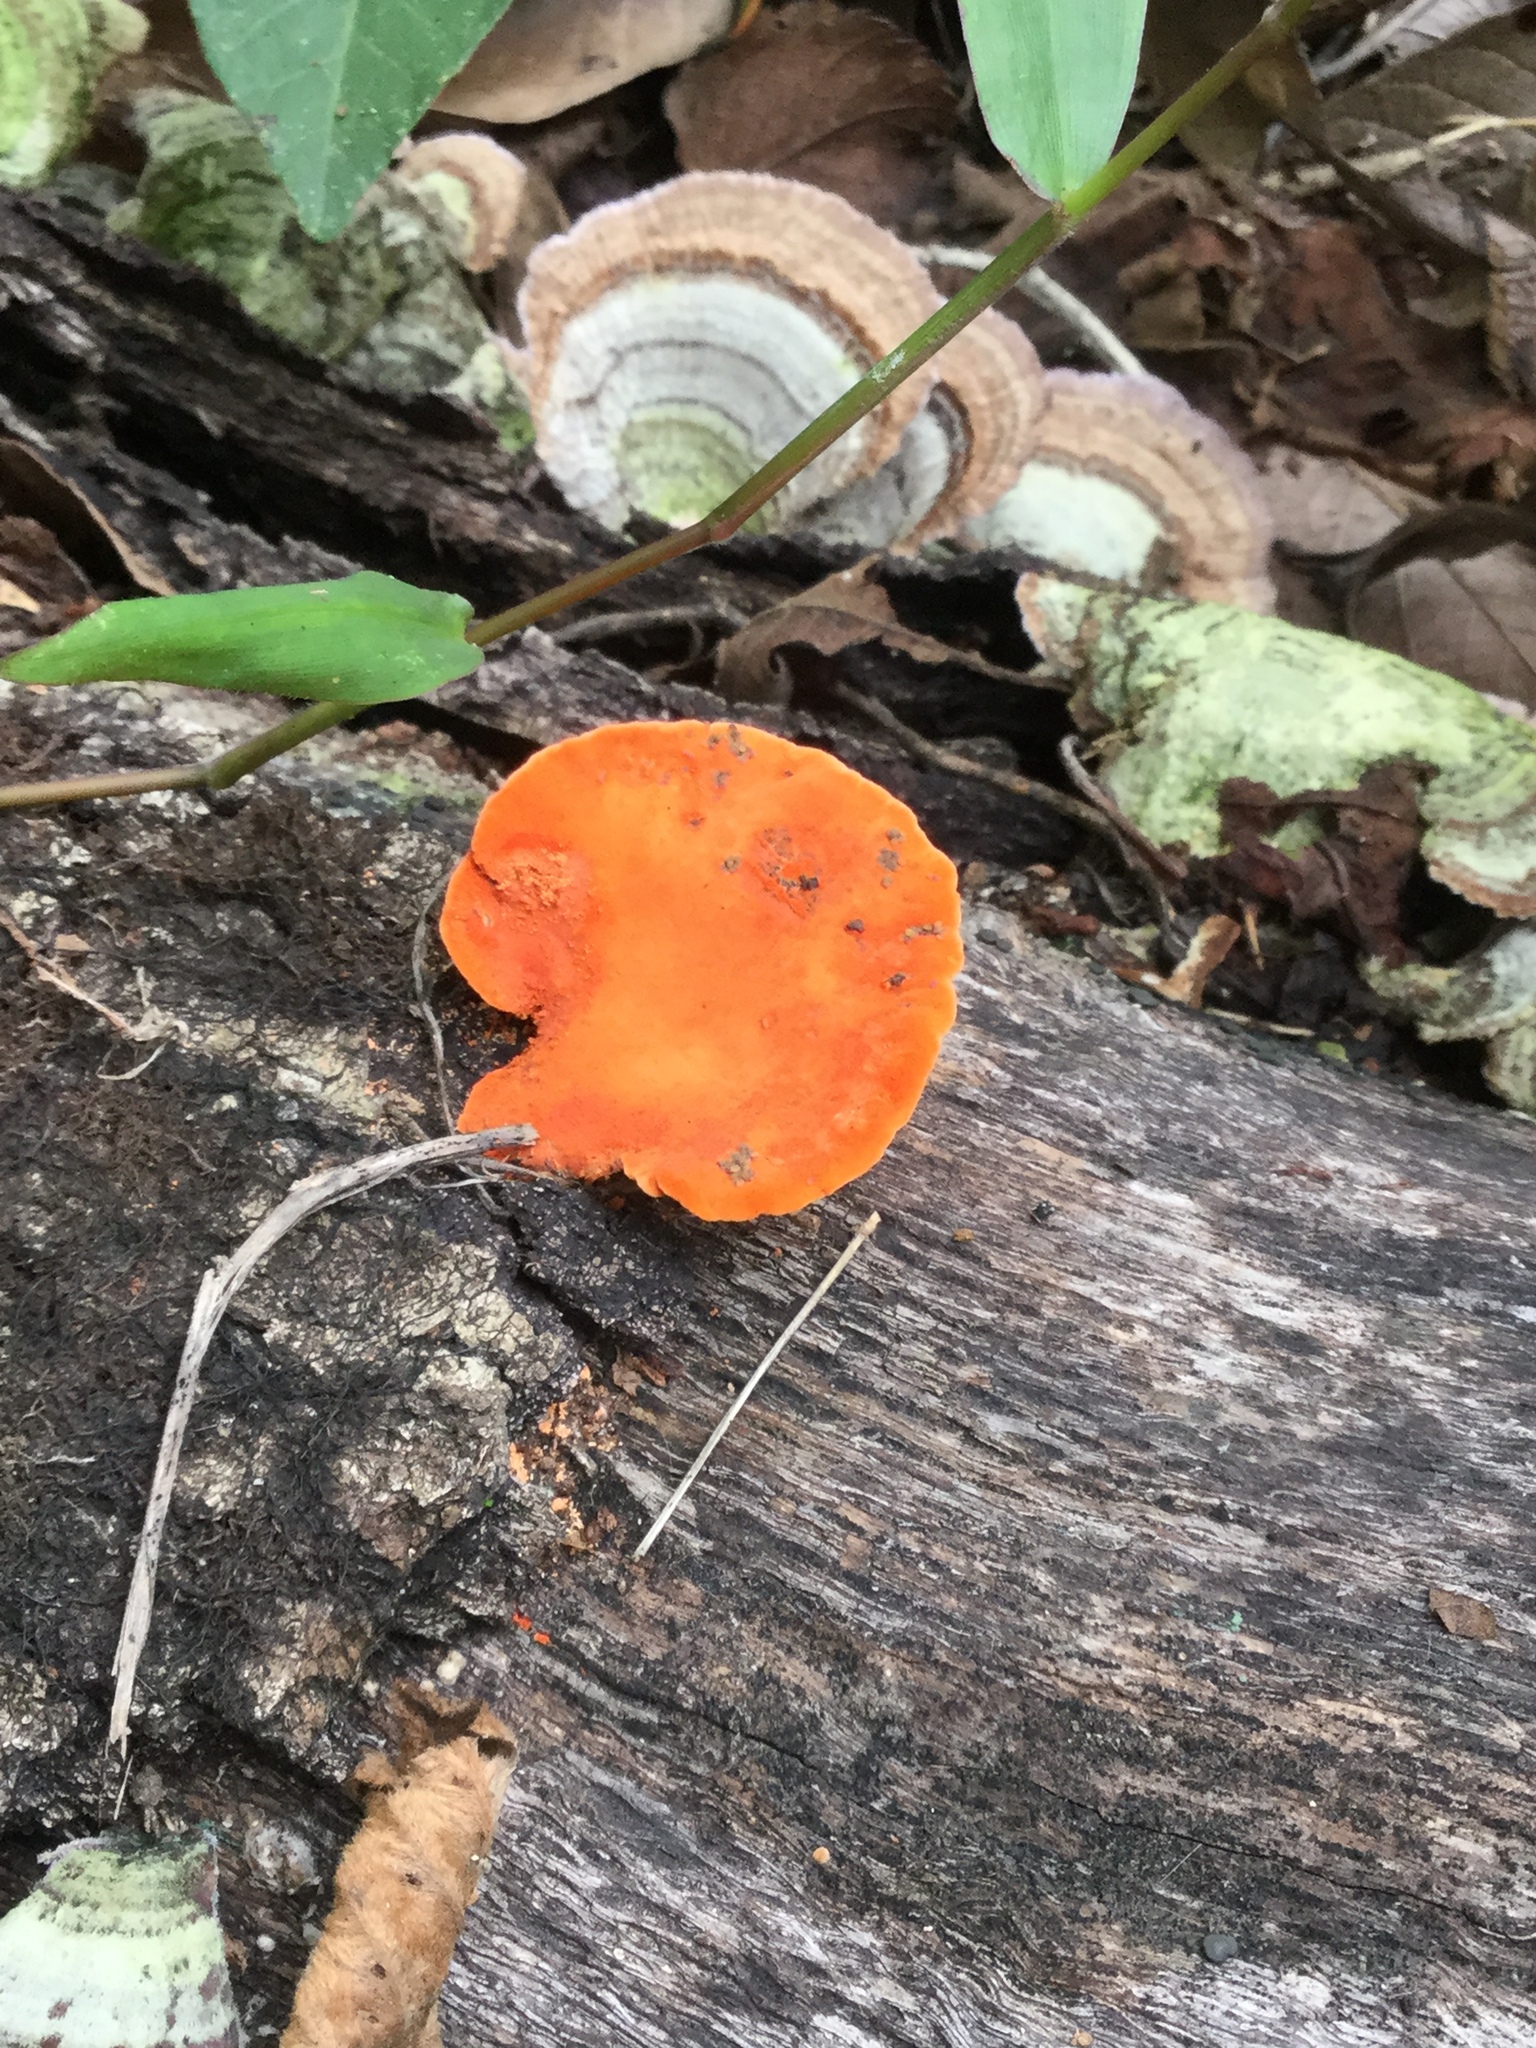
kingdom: Fungi
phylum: Basidiomycota
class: Agaricomycetes
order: Polyporales
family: Polyporaceae
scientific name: Polyporaceae
